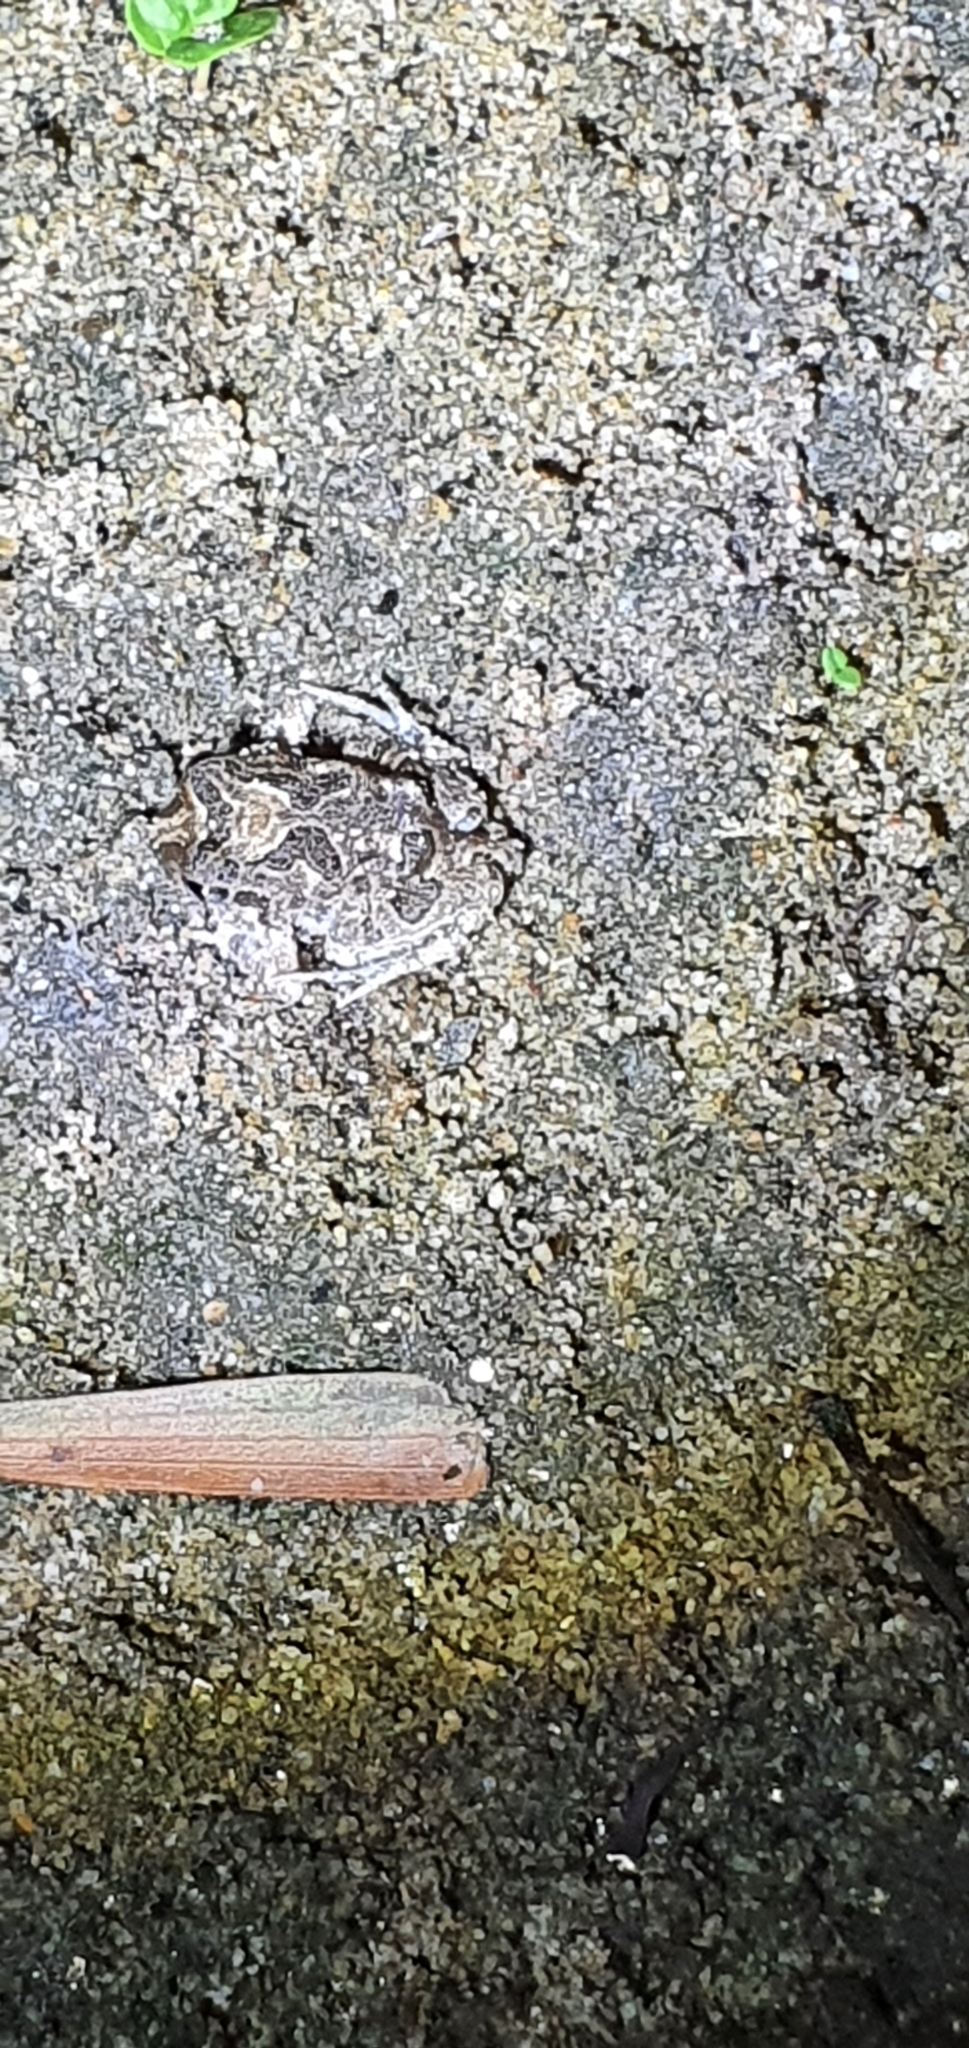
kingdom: Animalia
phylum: Chordata
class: Amphibia
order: Anura
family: Limnodynastidae
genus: Platyplectrum
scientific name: Platyplectrum ornatum
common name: Ornate burrowing frog
